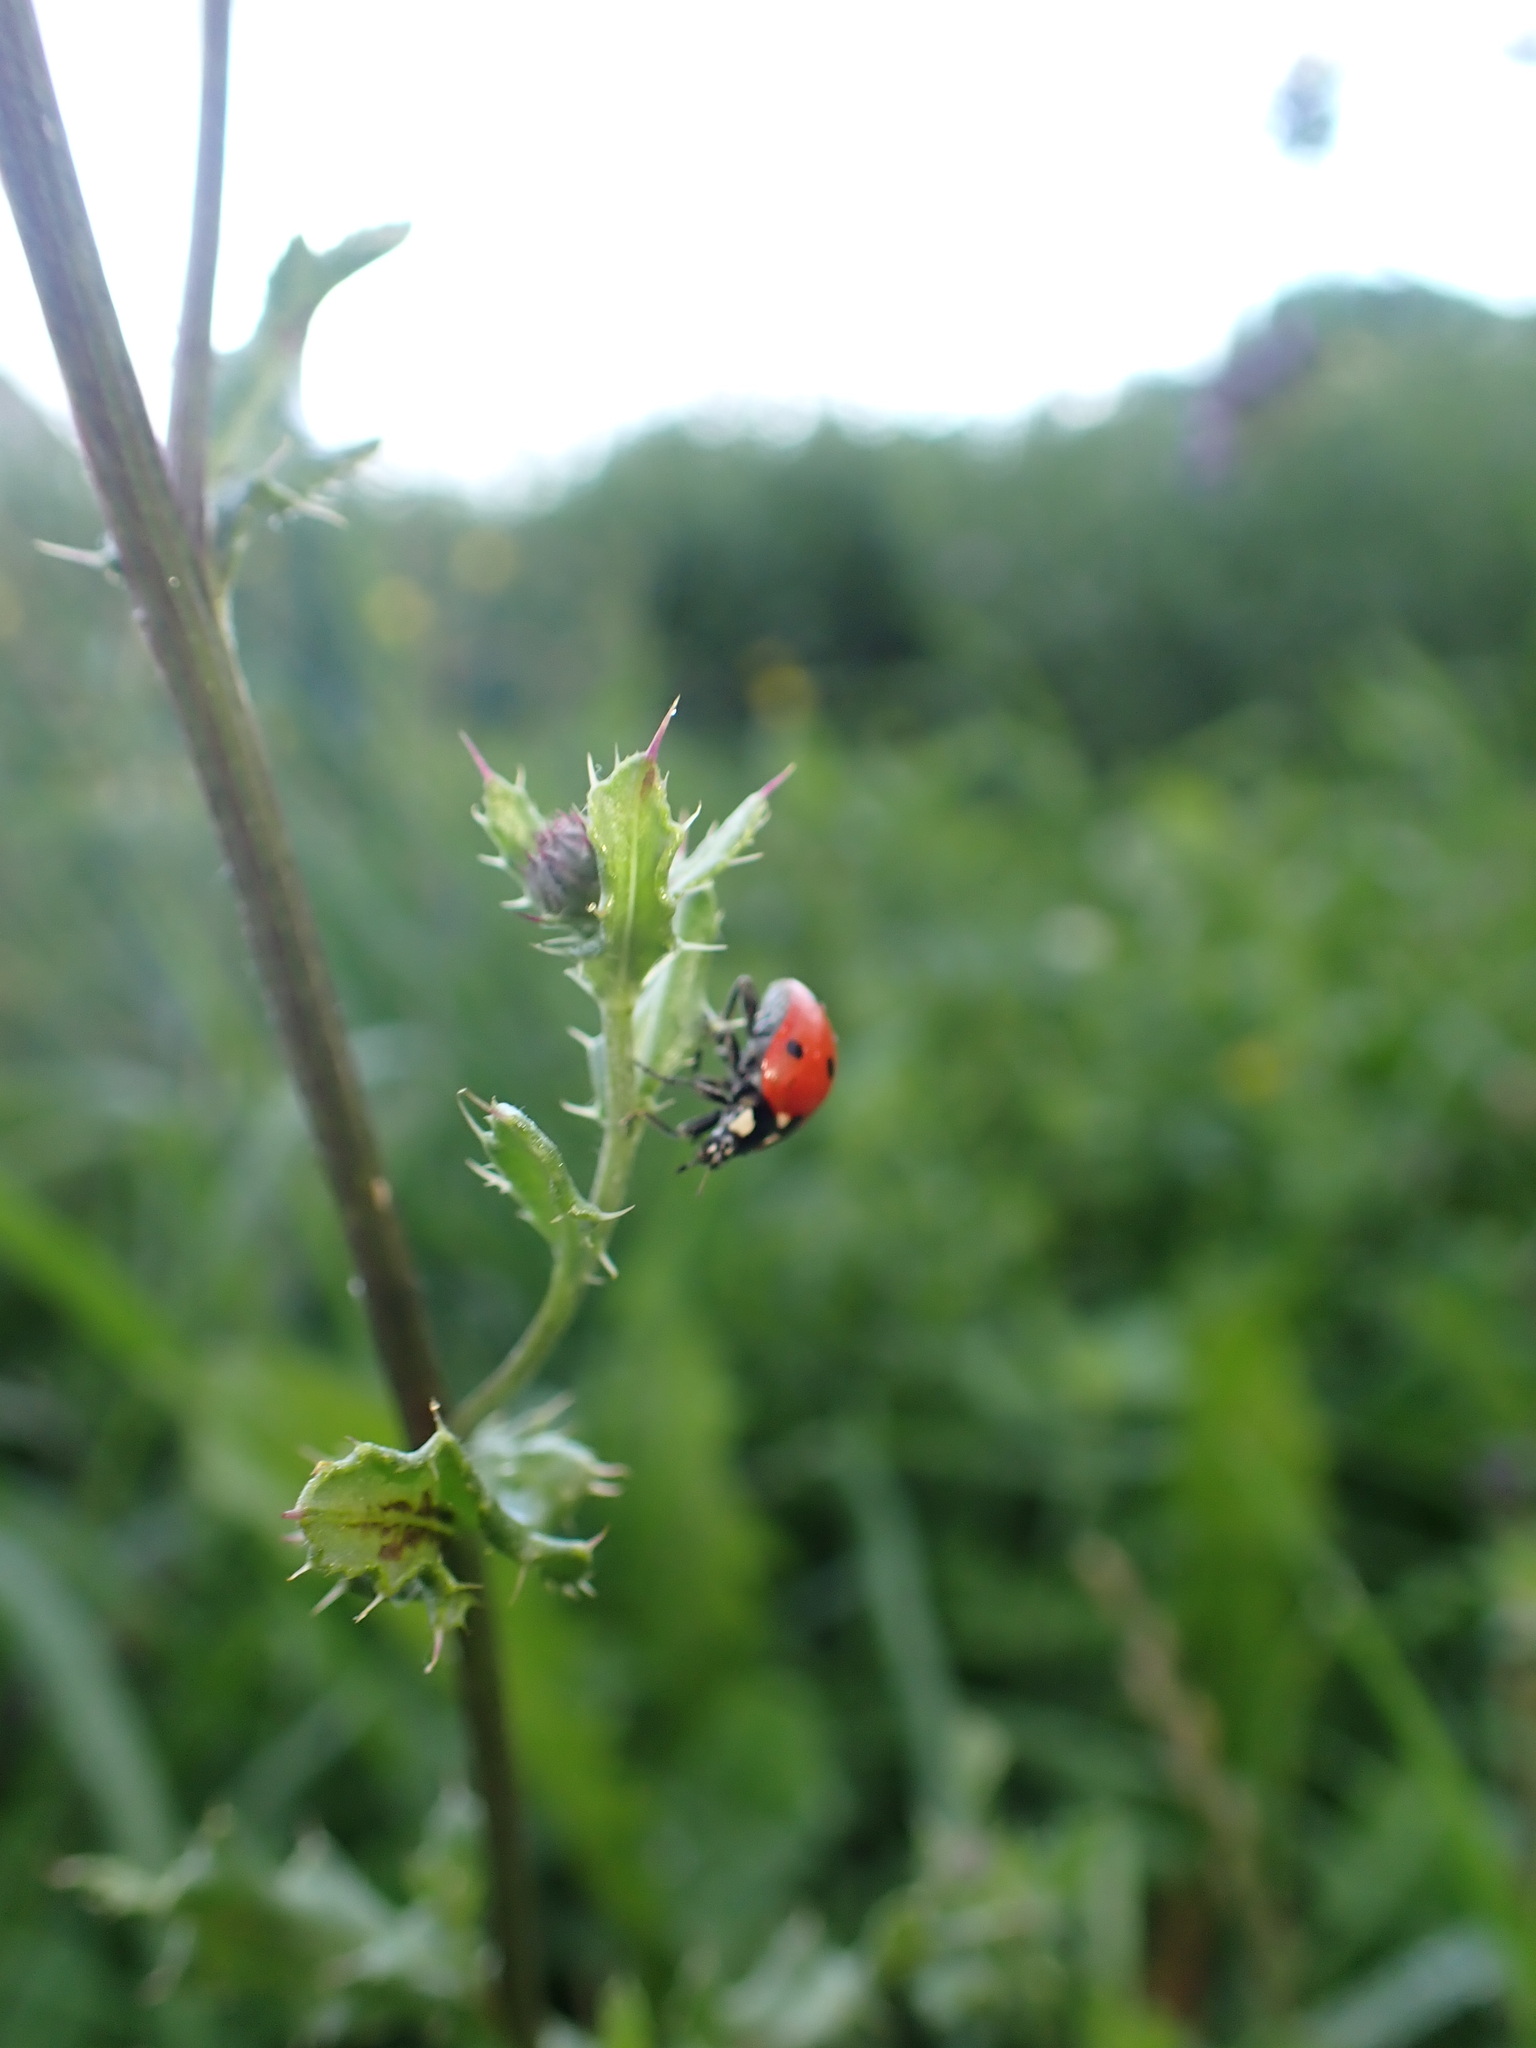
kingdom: Animalia
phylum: Arthropoda
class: Insecta
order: Coleoptera
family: Coccinellidae
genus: Coccinella
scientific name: Coccinella septempunctata
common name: Sevenspotted lady beetle
